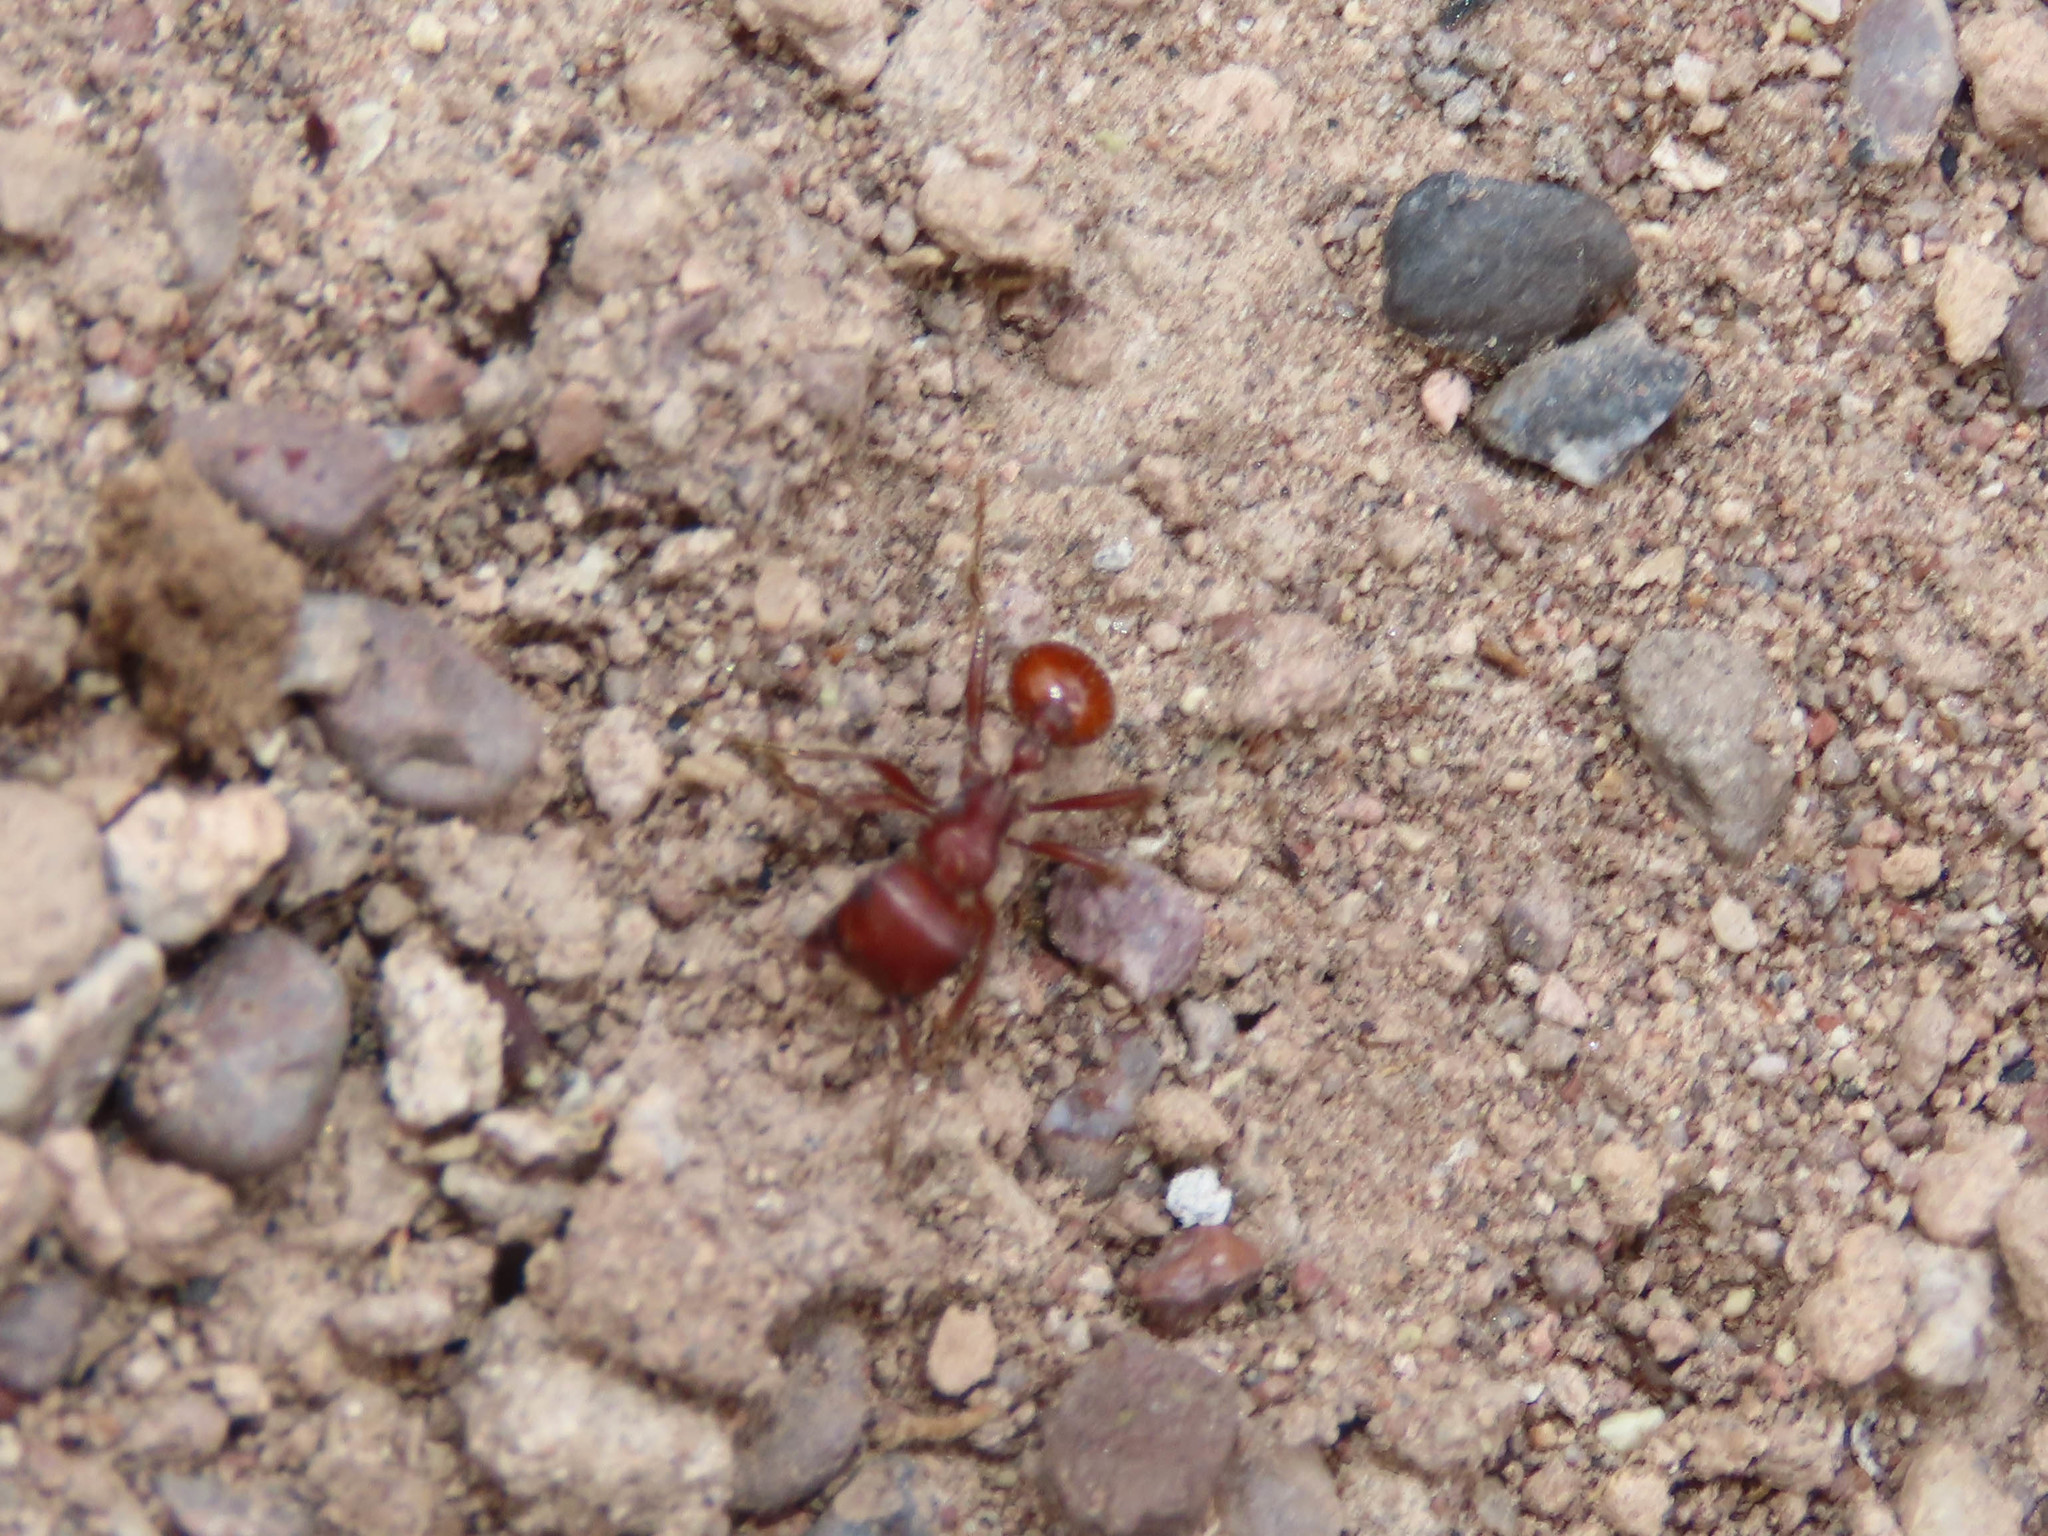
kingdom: Animalia
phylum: Arthropoda
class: Insecta
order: Hymenoptera
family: Formicidae
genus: Pogonomyrmex
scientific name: Pogonomyrmex barbatus
